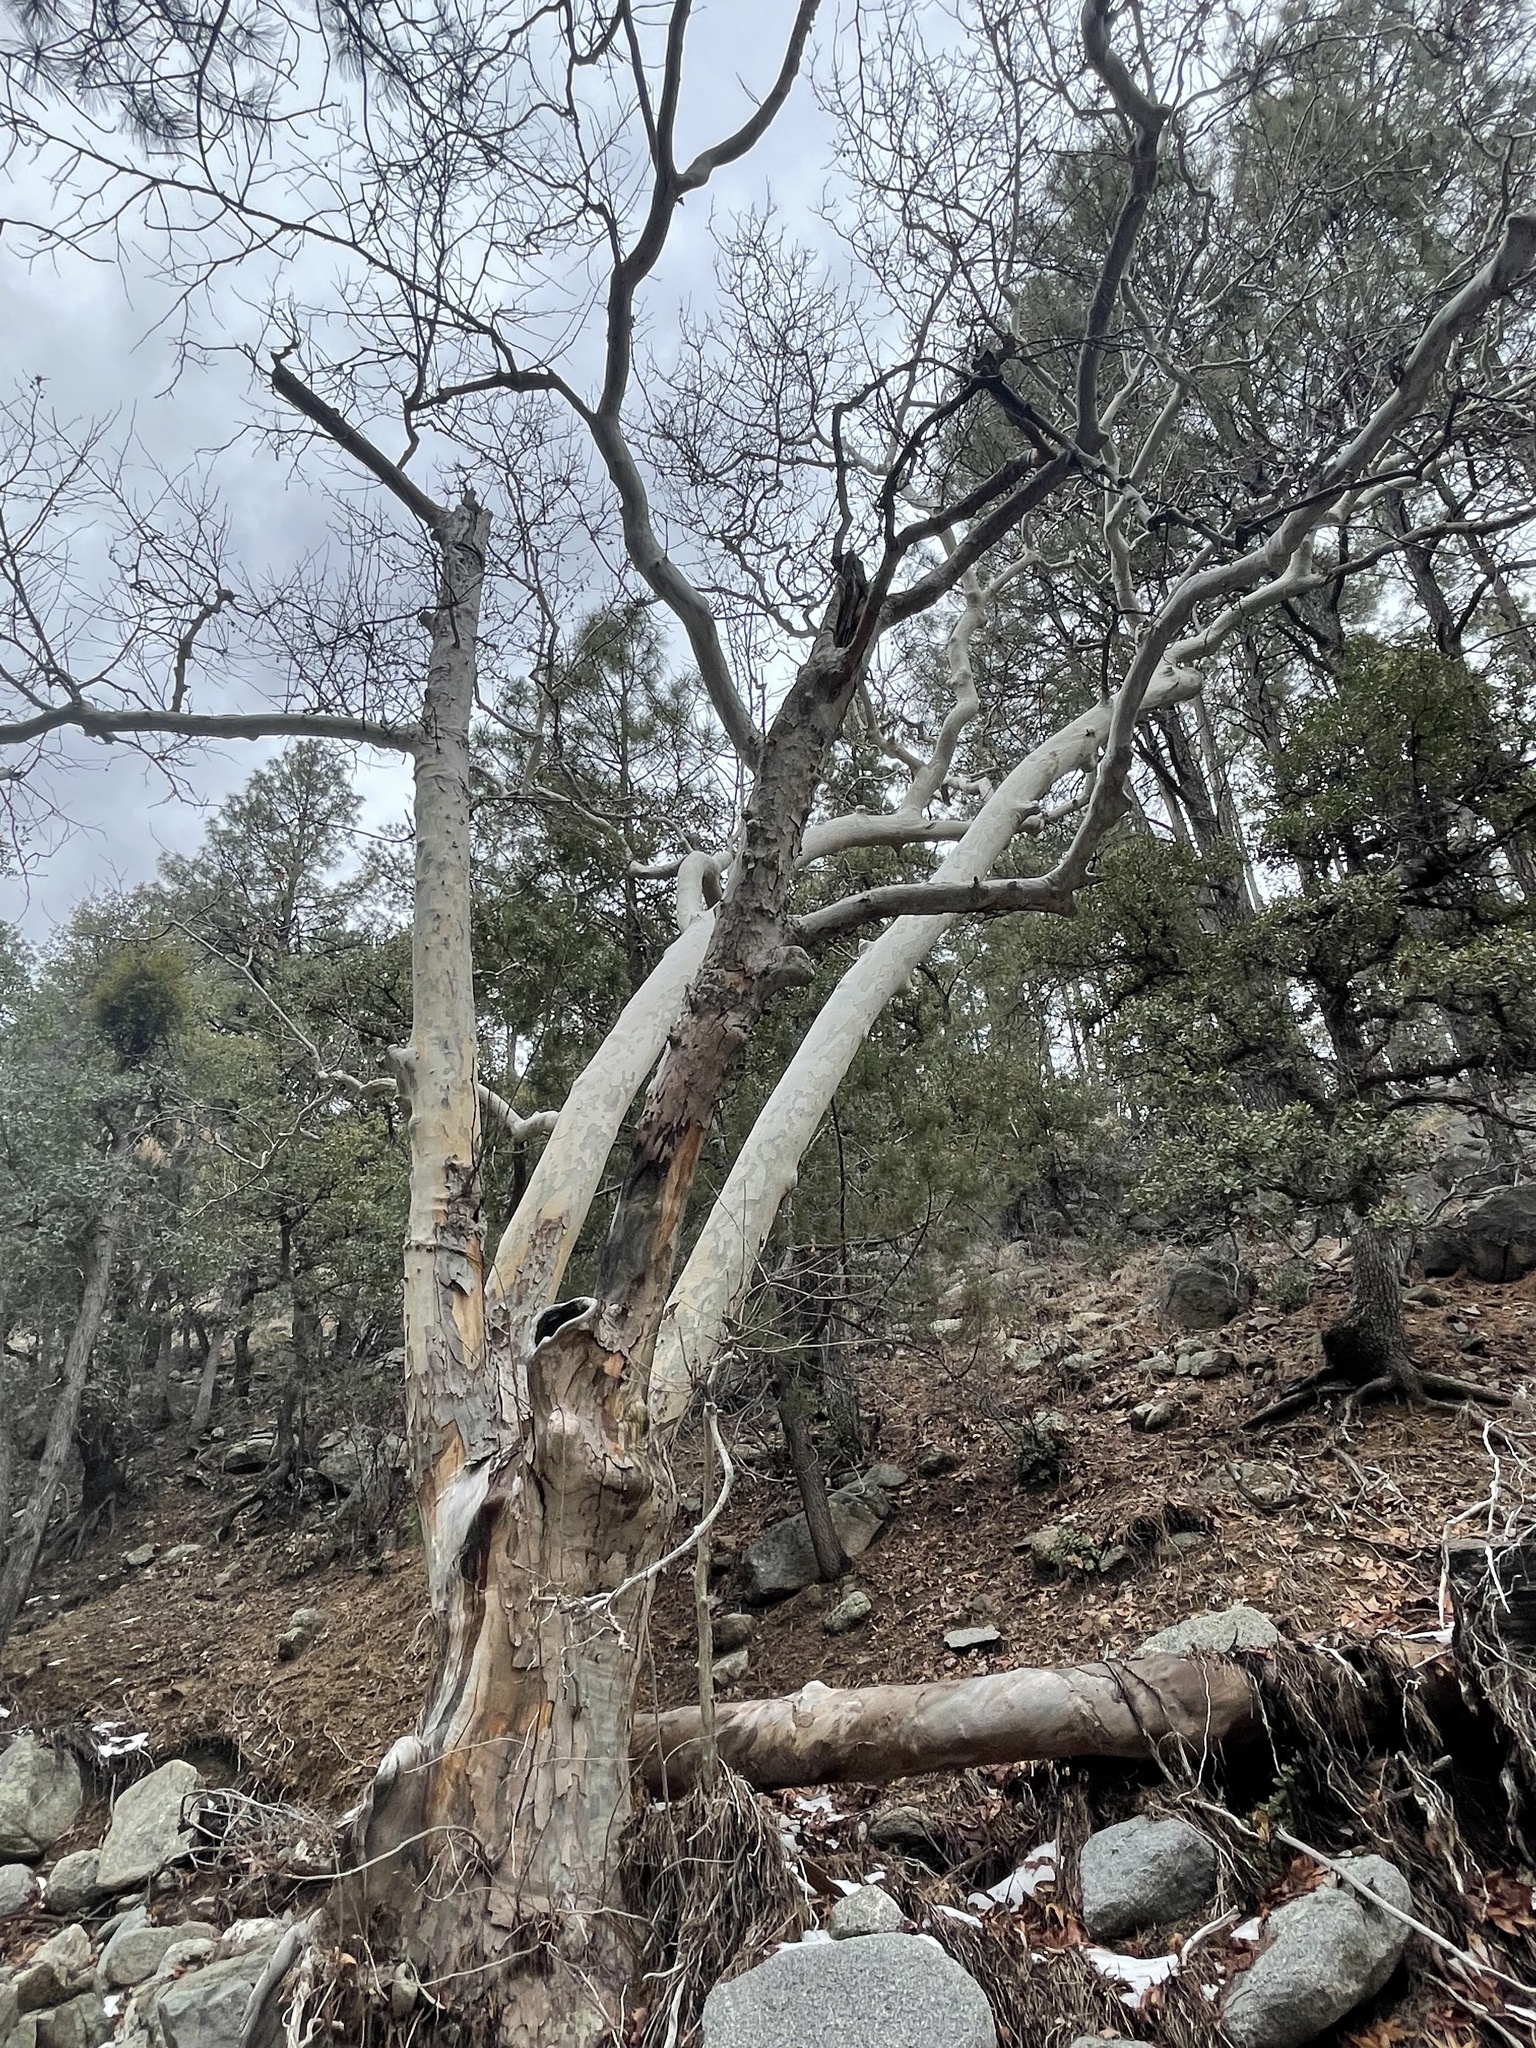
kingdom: Plantae
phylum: Tracheophyta
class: Magnoliopsida
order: Proteales
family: Platanaceae
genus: Platanus
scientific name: Platanus wrightii
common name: Arizona sycamore
